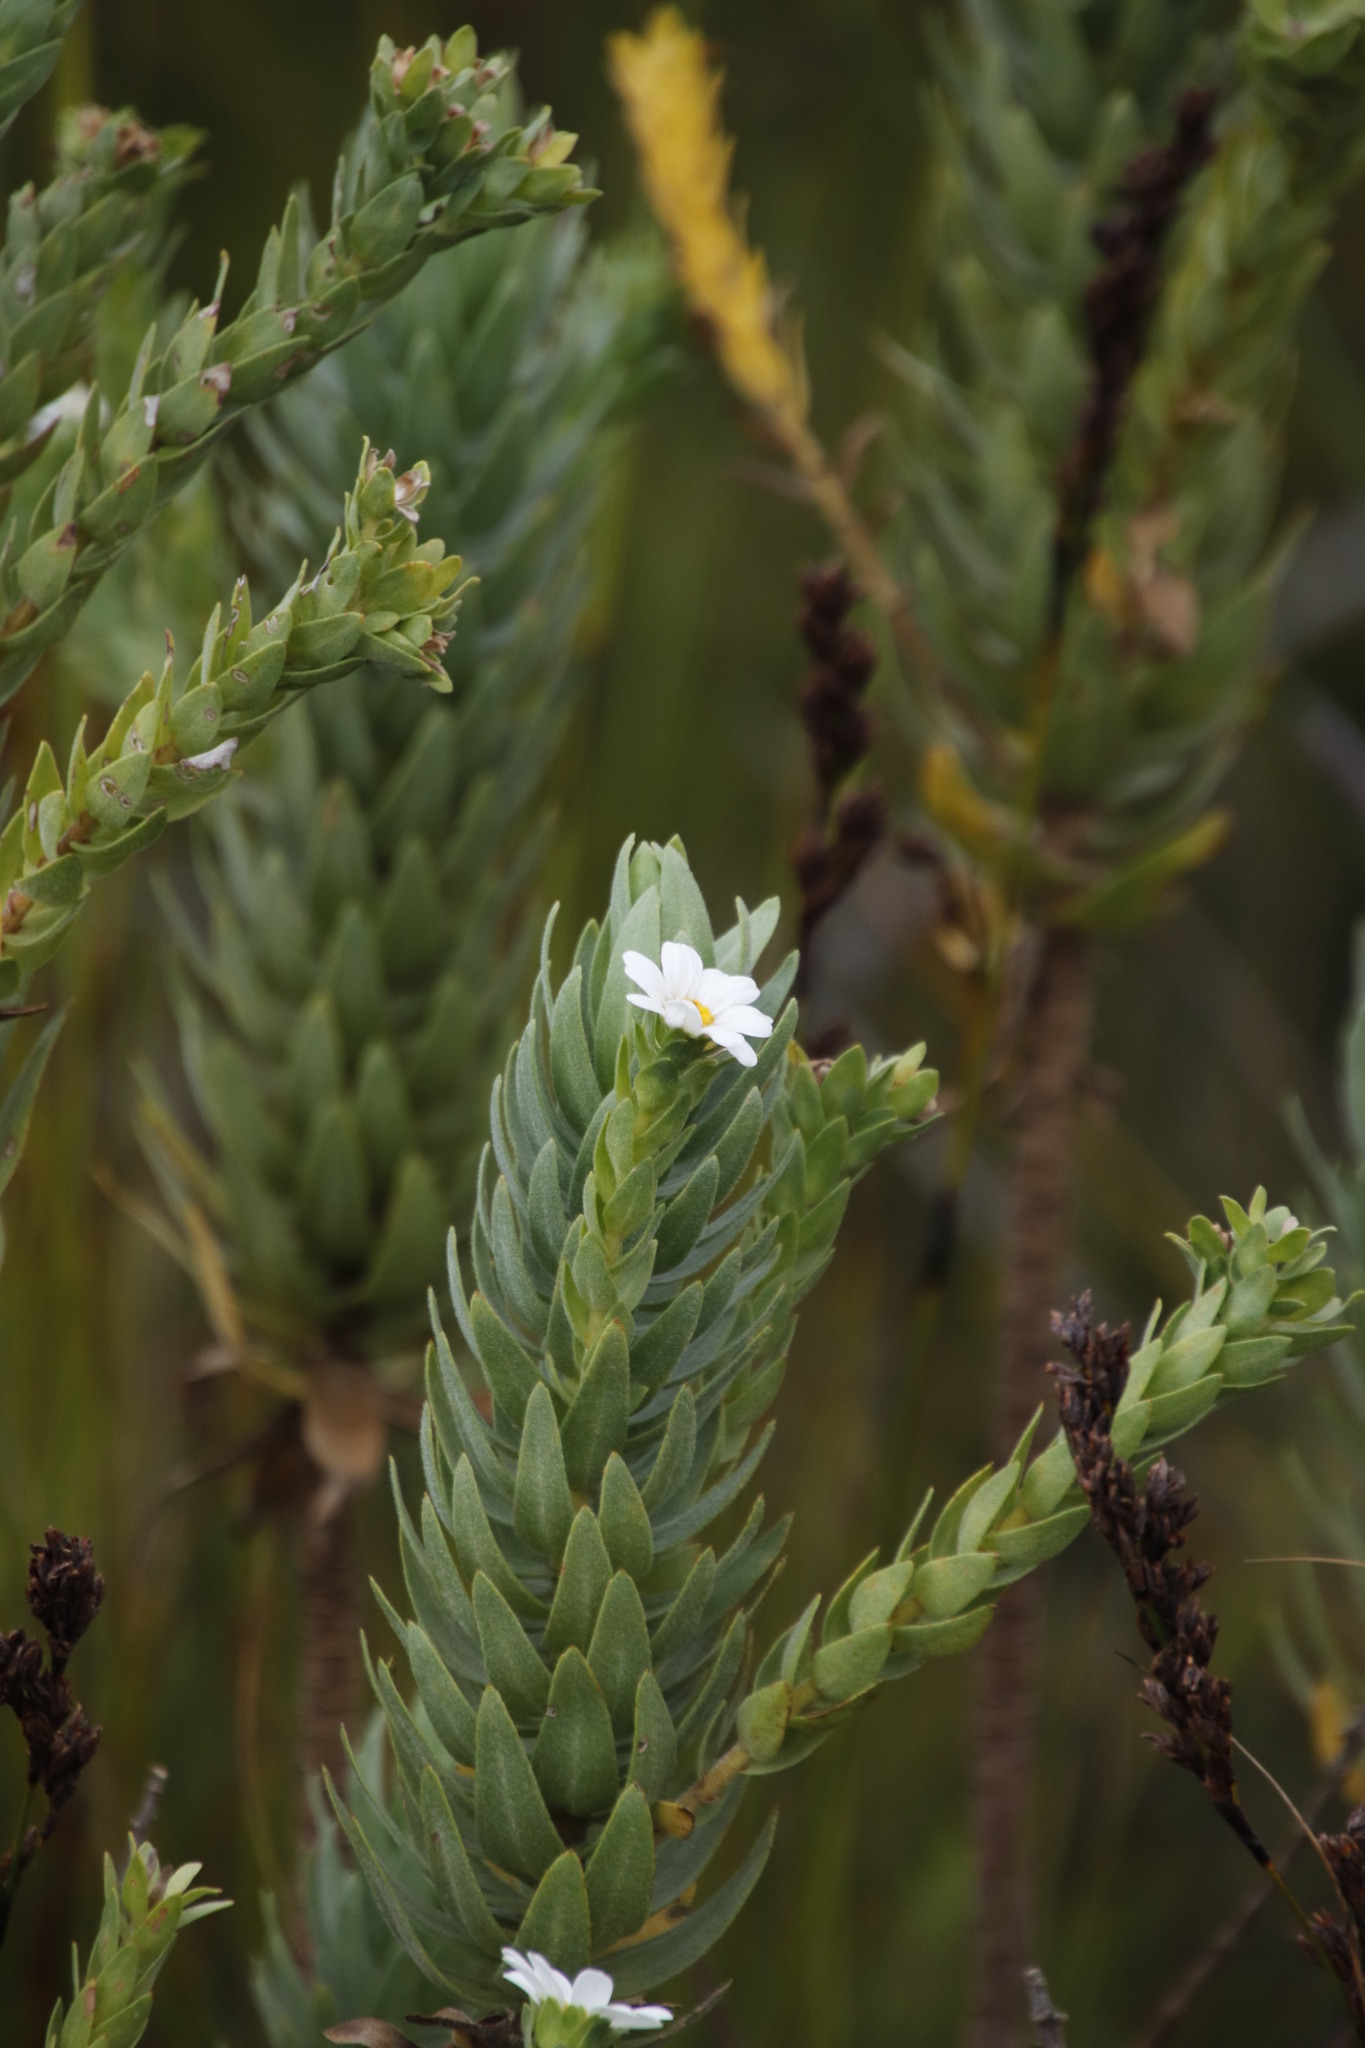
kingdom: Plantae
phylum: Tracheophyta
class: Magnoliopsida
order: Asterales
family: Asteraceae
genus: Osmitopsis
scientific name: Osmitopsis asteriscoides
